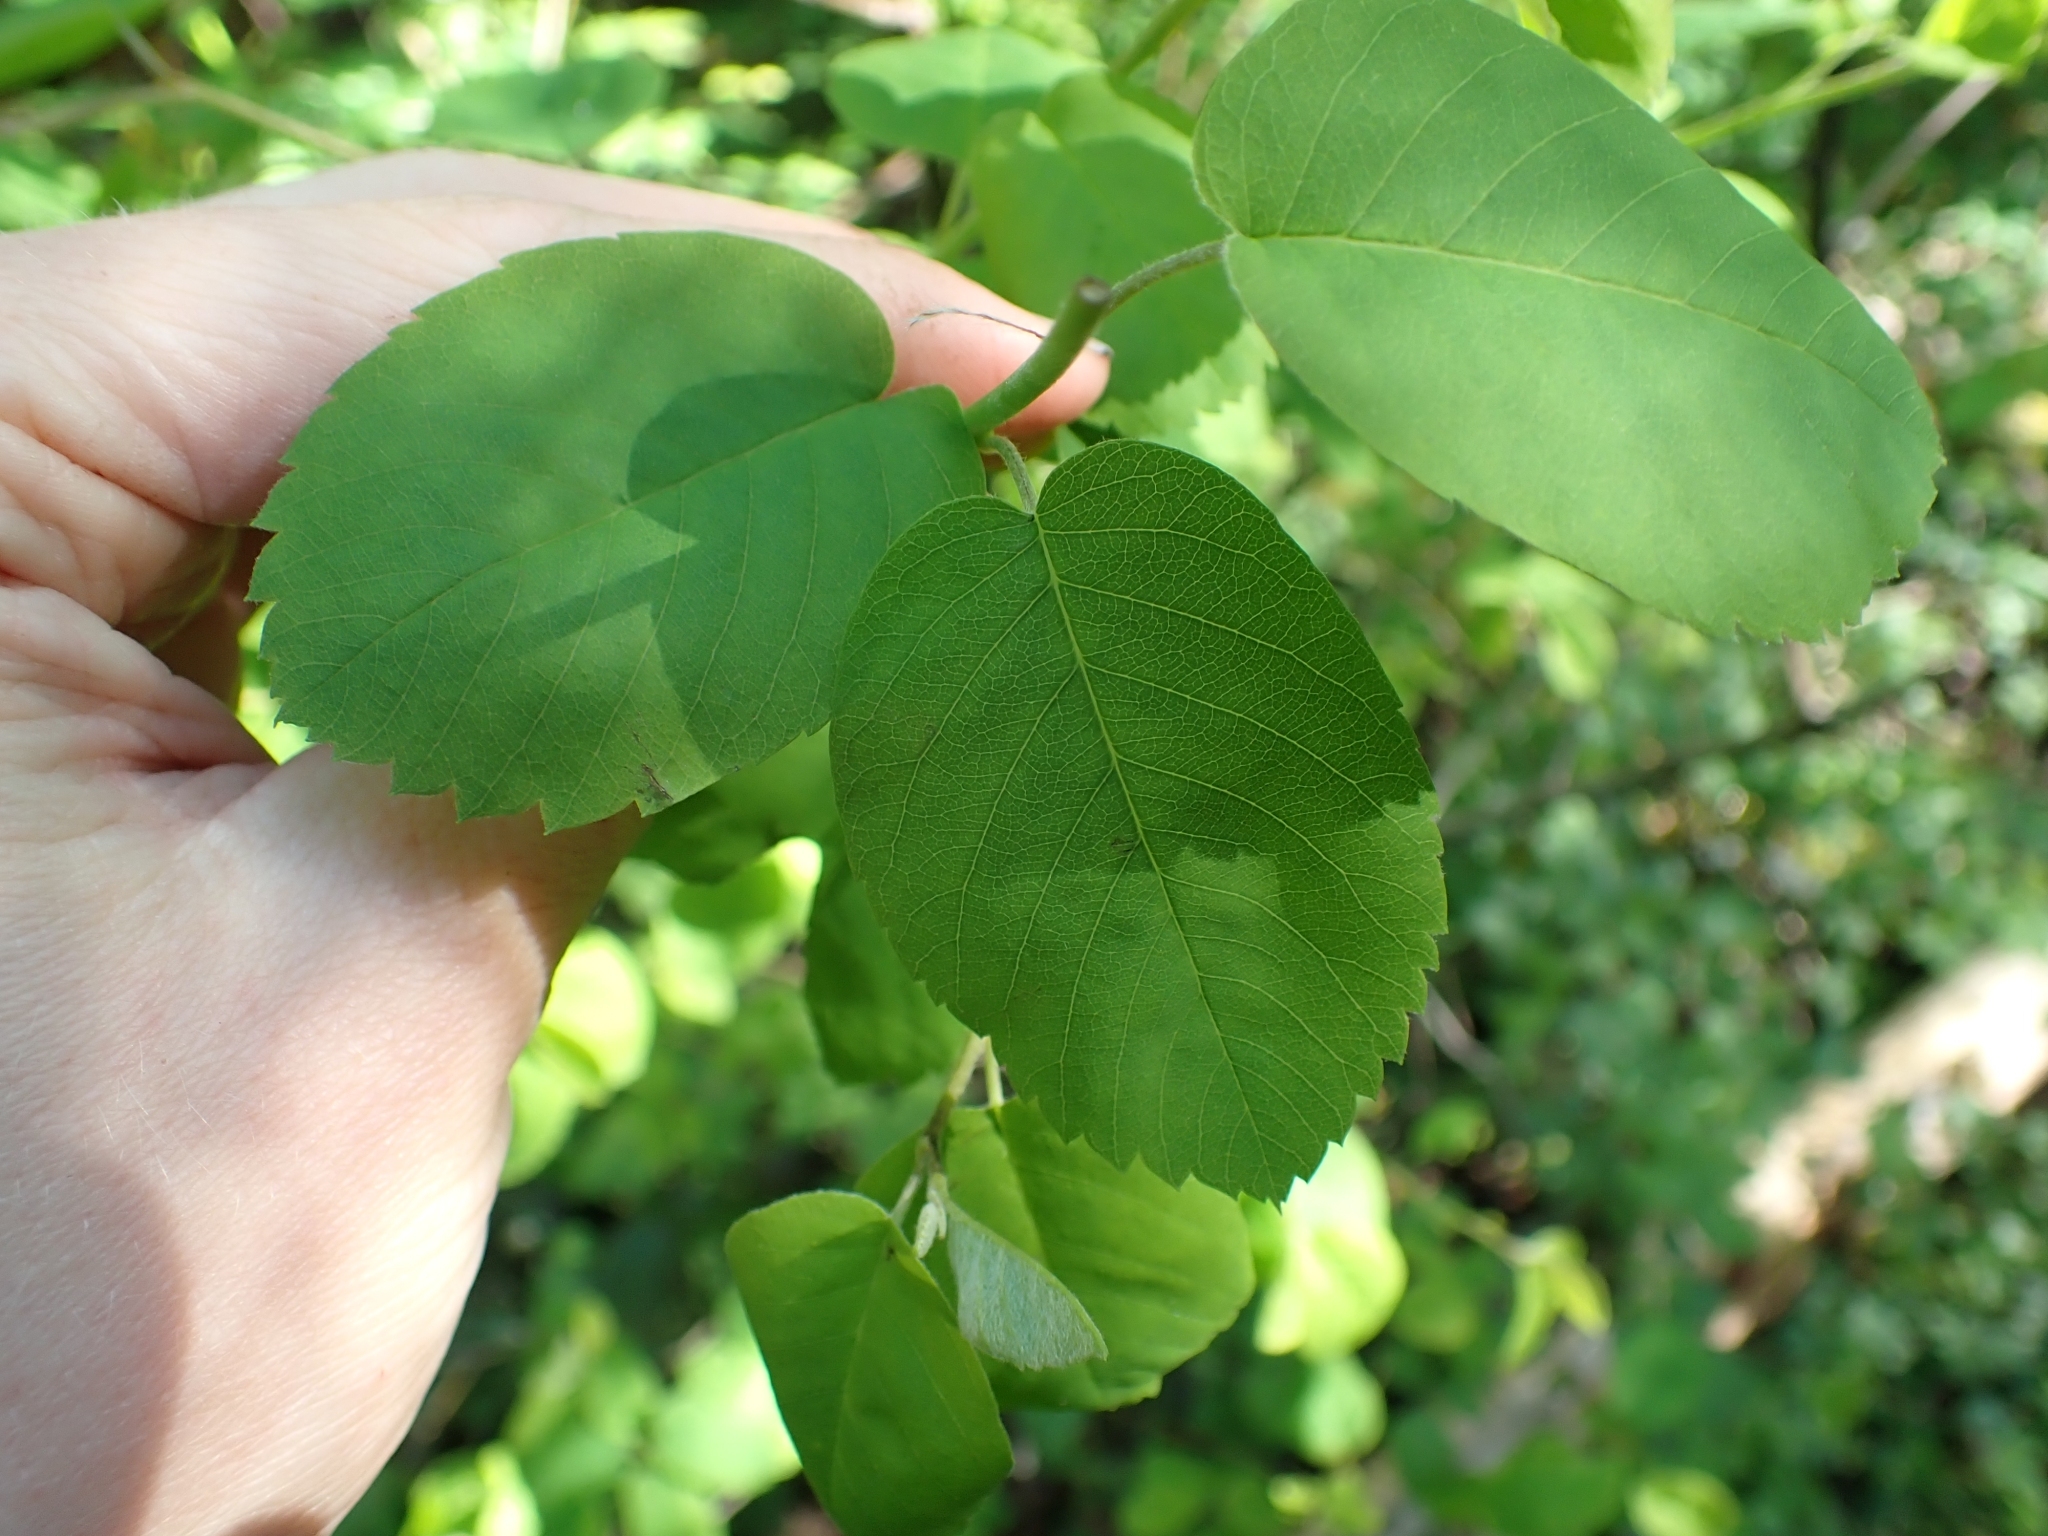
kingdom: Plantae
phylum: Tracheophyta
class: Magnoliopsida
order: Rosales
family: Rosaceae
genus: Amelanchier
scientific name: Amelanchier alnifolia
